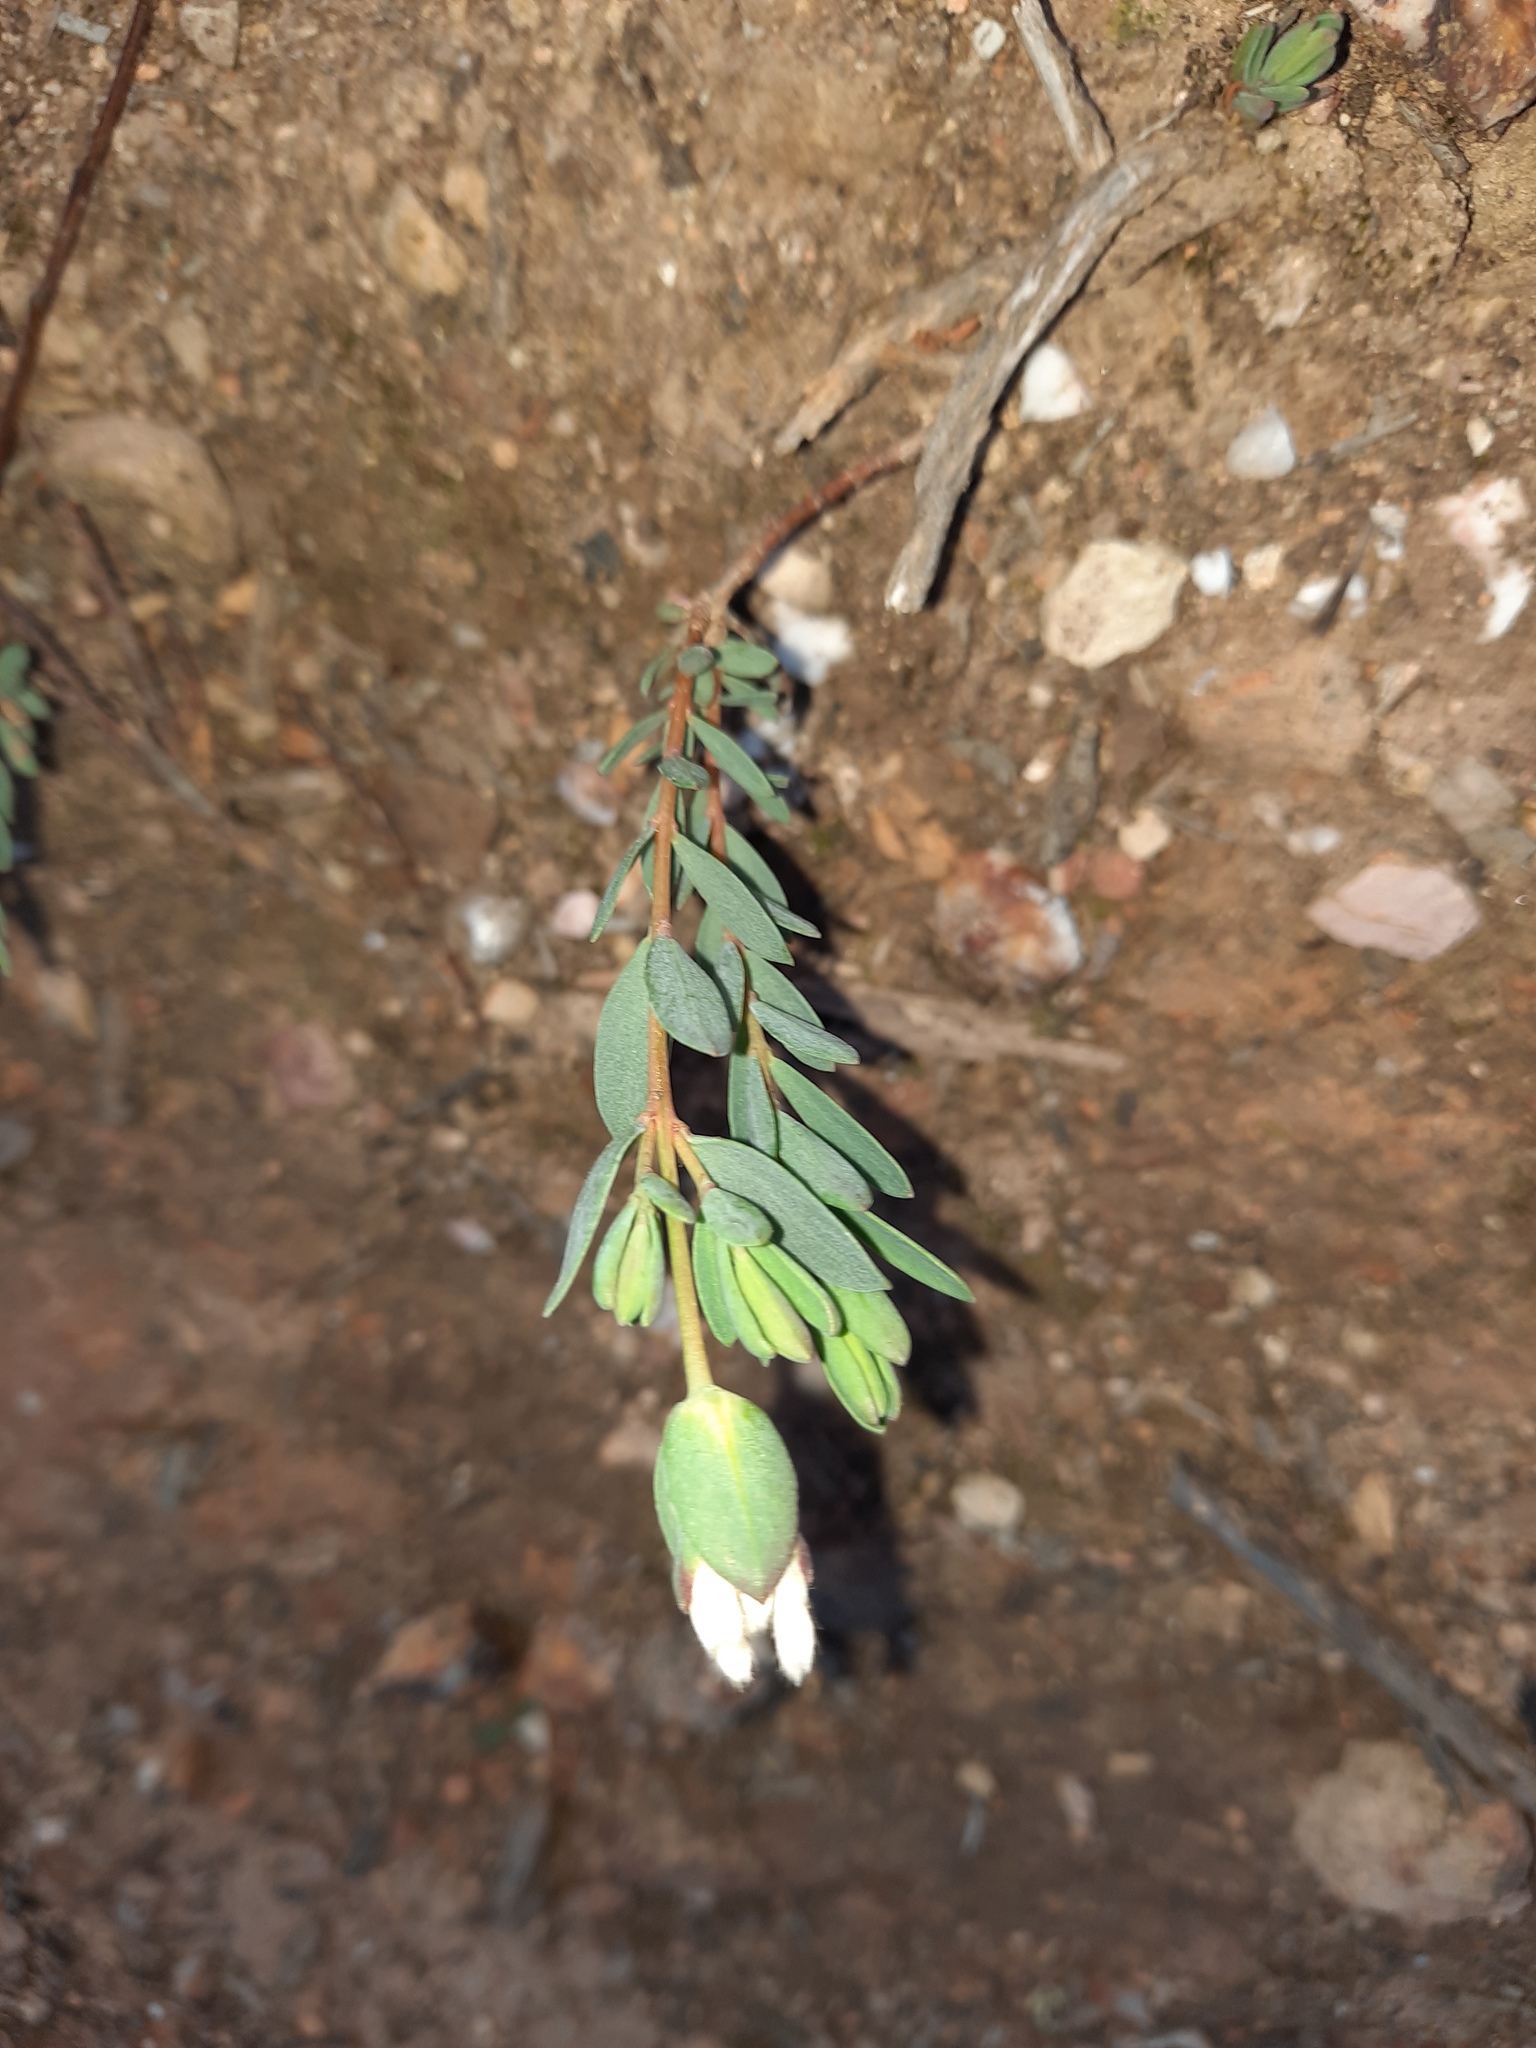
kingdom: Plantae
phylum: Tracheophyta
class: Magnoliopsida
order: Malvales
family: Thymelaeaceae
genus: Pimelea
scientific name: Pimelea humilis
